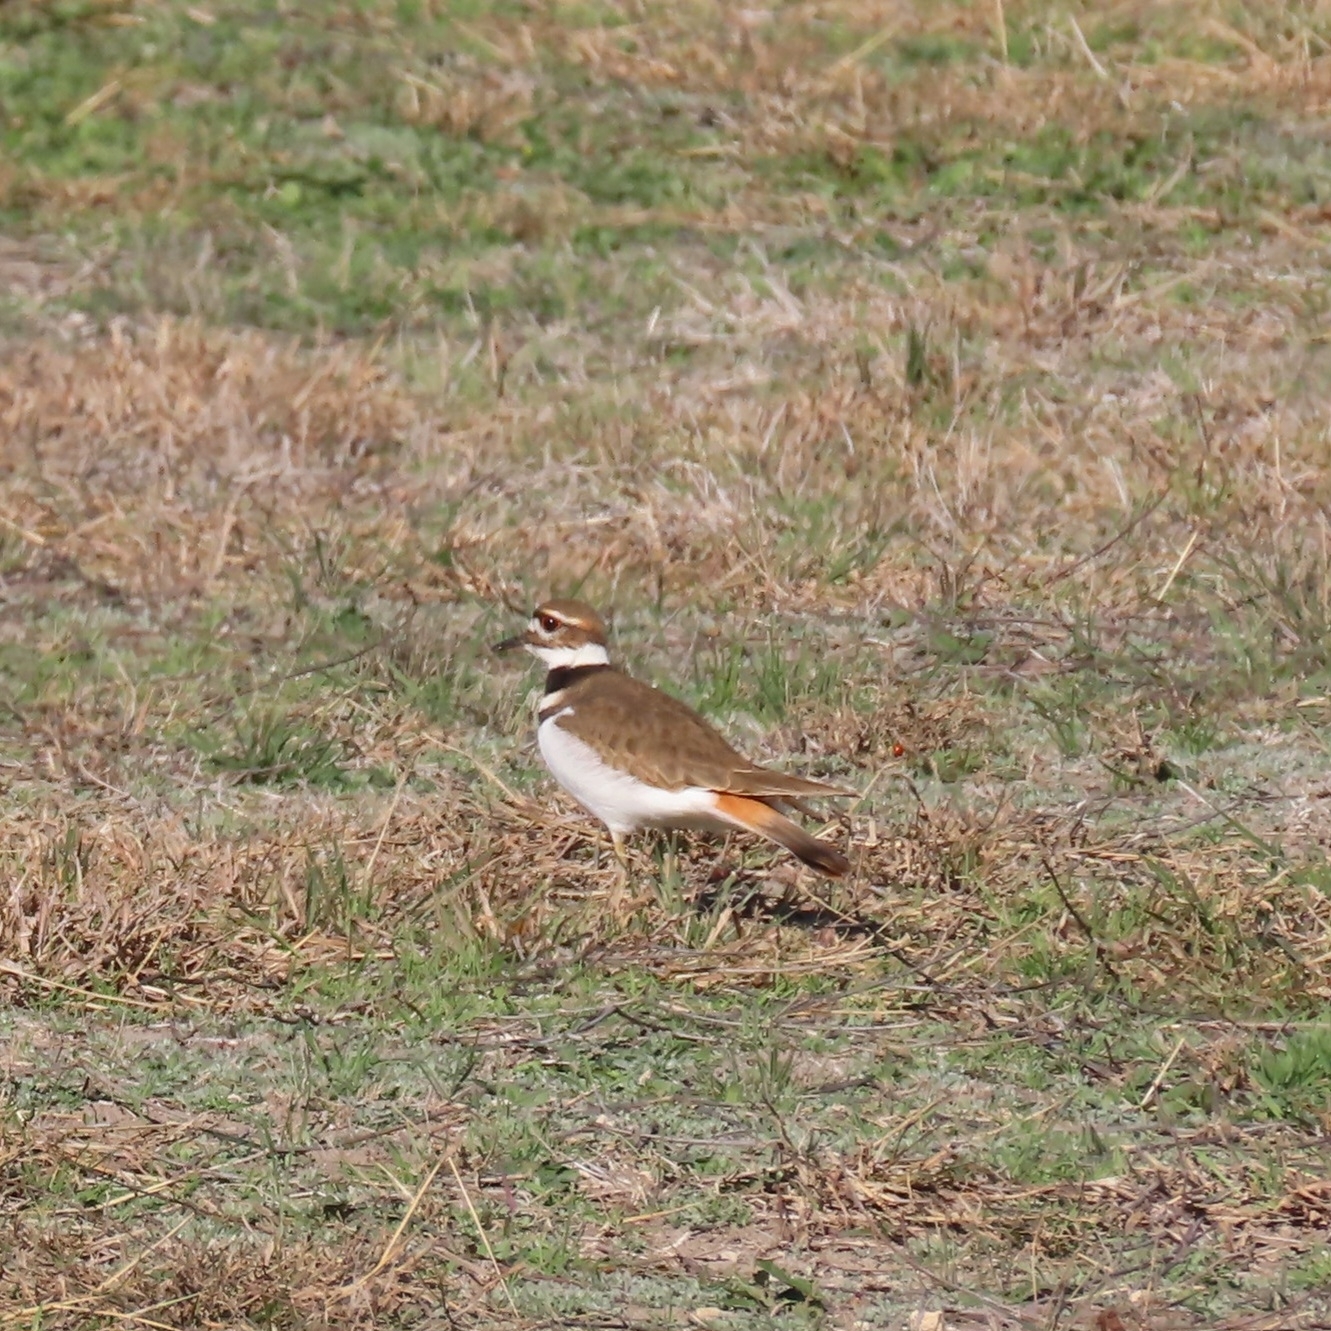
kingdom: Animalia
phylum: Chordata
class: Aves
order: Charadriiformes
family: Charadriidae
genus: Charadrius
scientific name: Charadrius vociferus
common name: Killdeer
